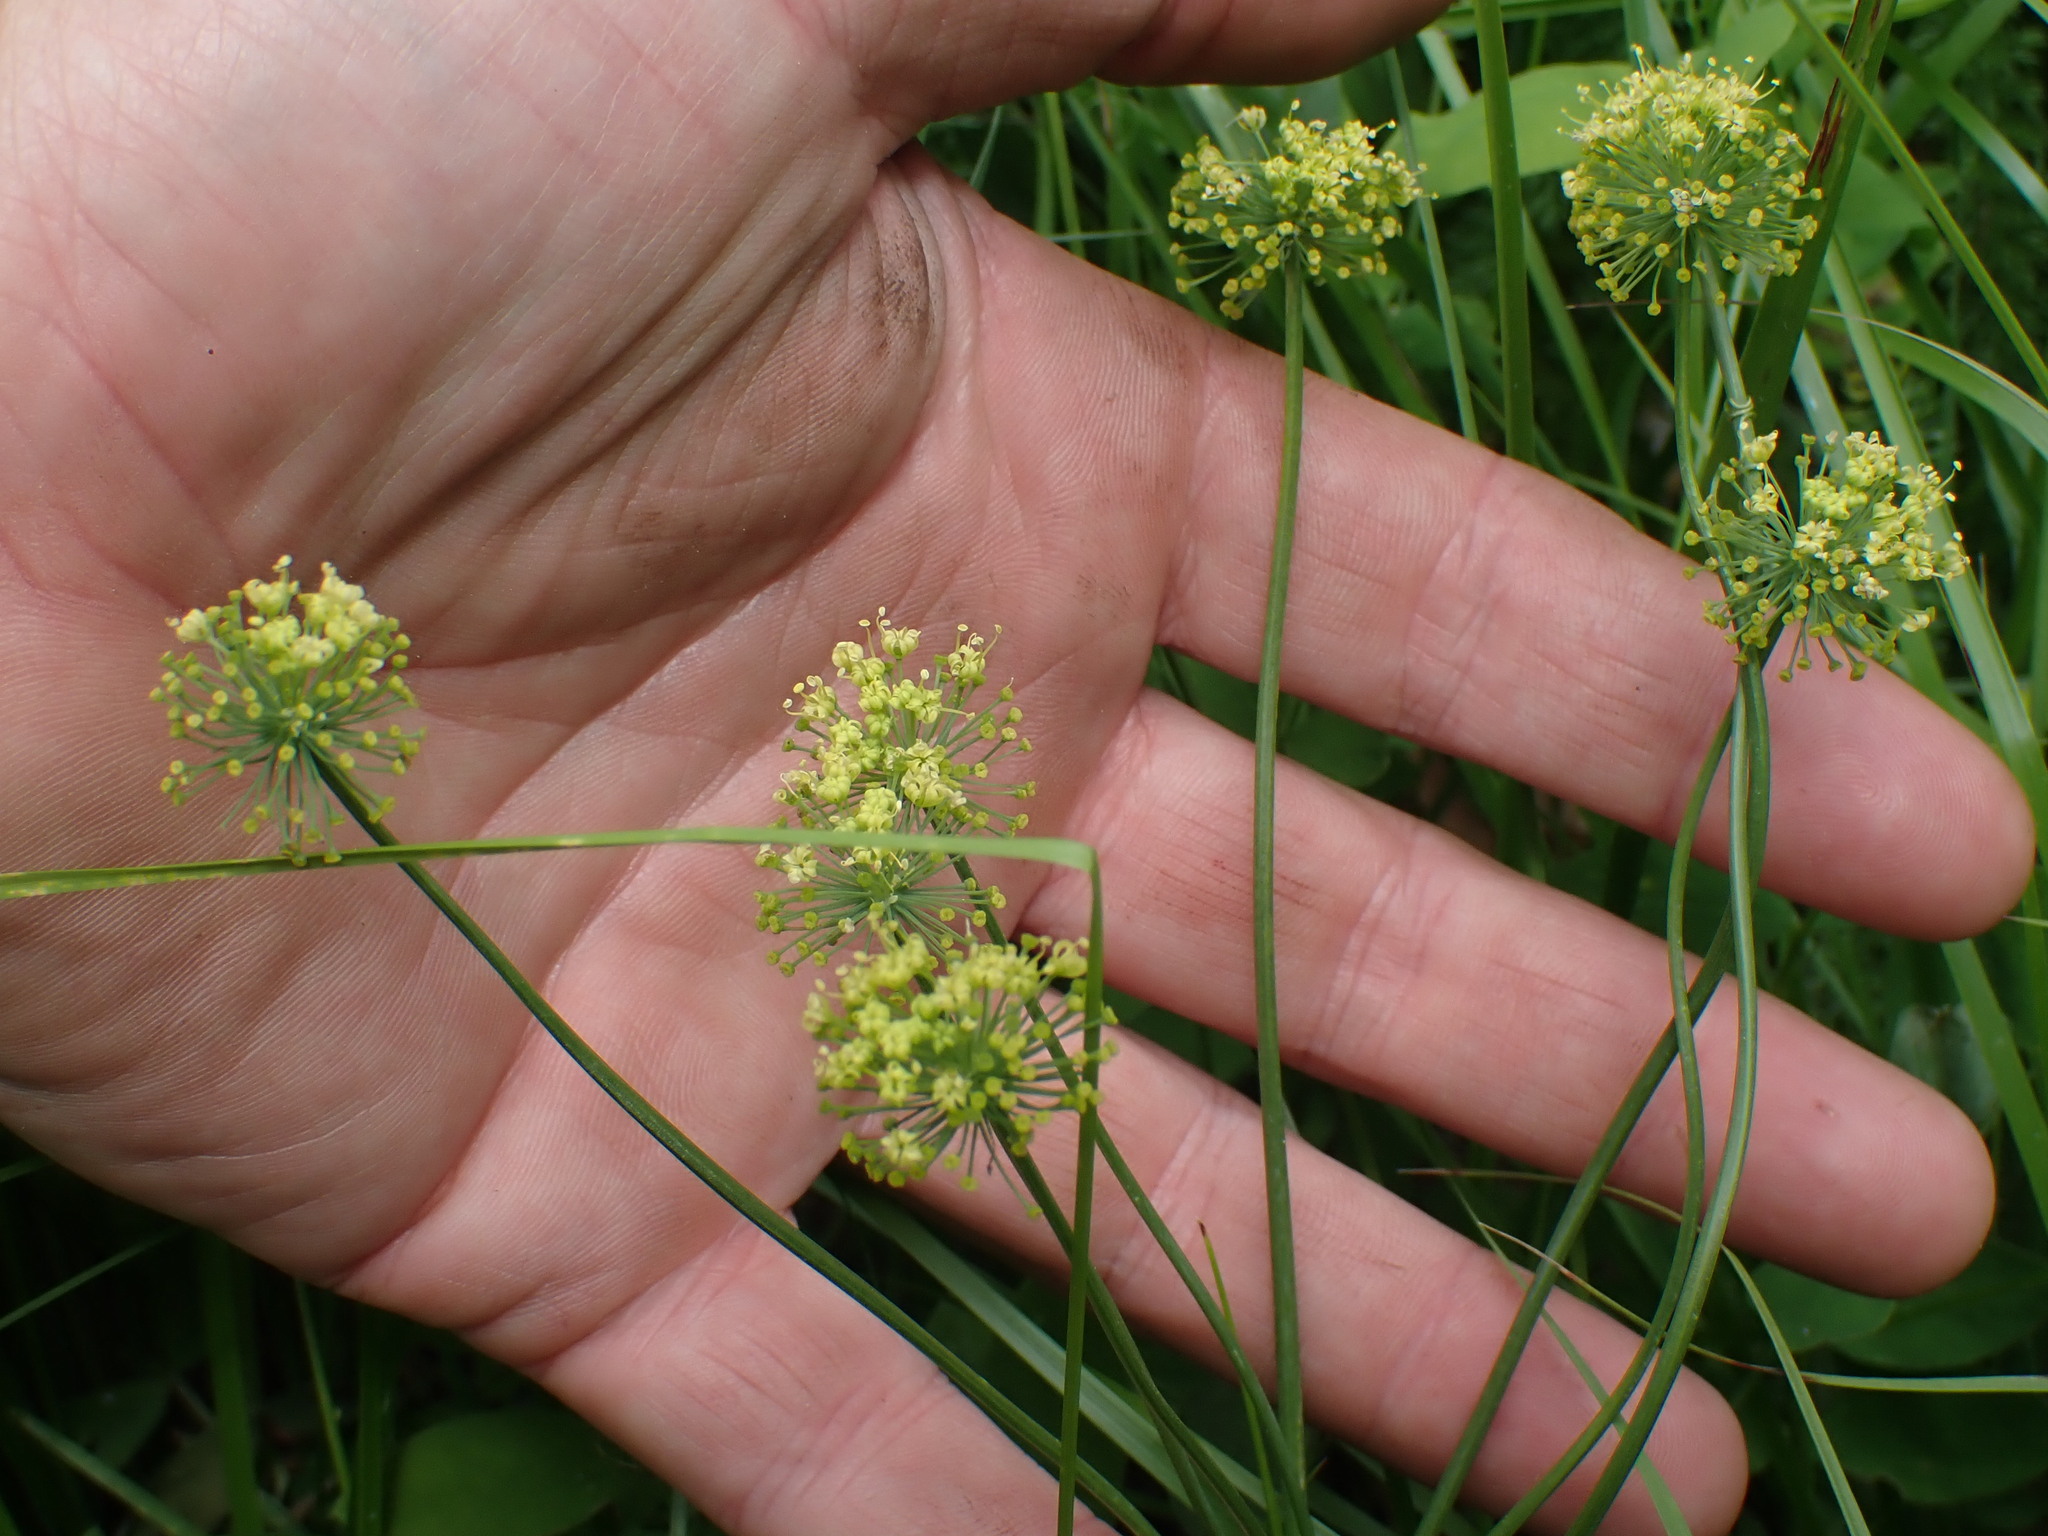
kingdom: Plantae
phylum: Tracheophyta
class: Magnoliopsida
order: Apiales
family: Apiaceae
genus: Lomatium
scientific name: Lomatium nudicaule
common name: Pestle lomatium
